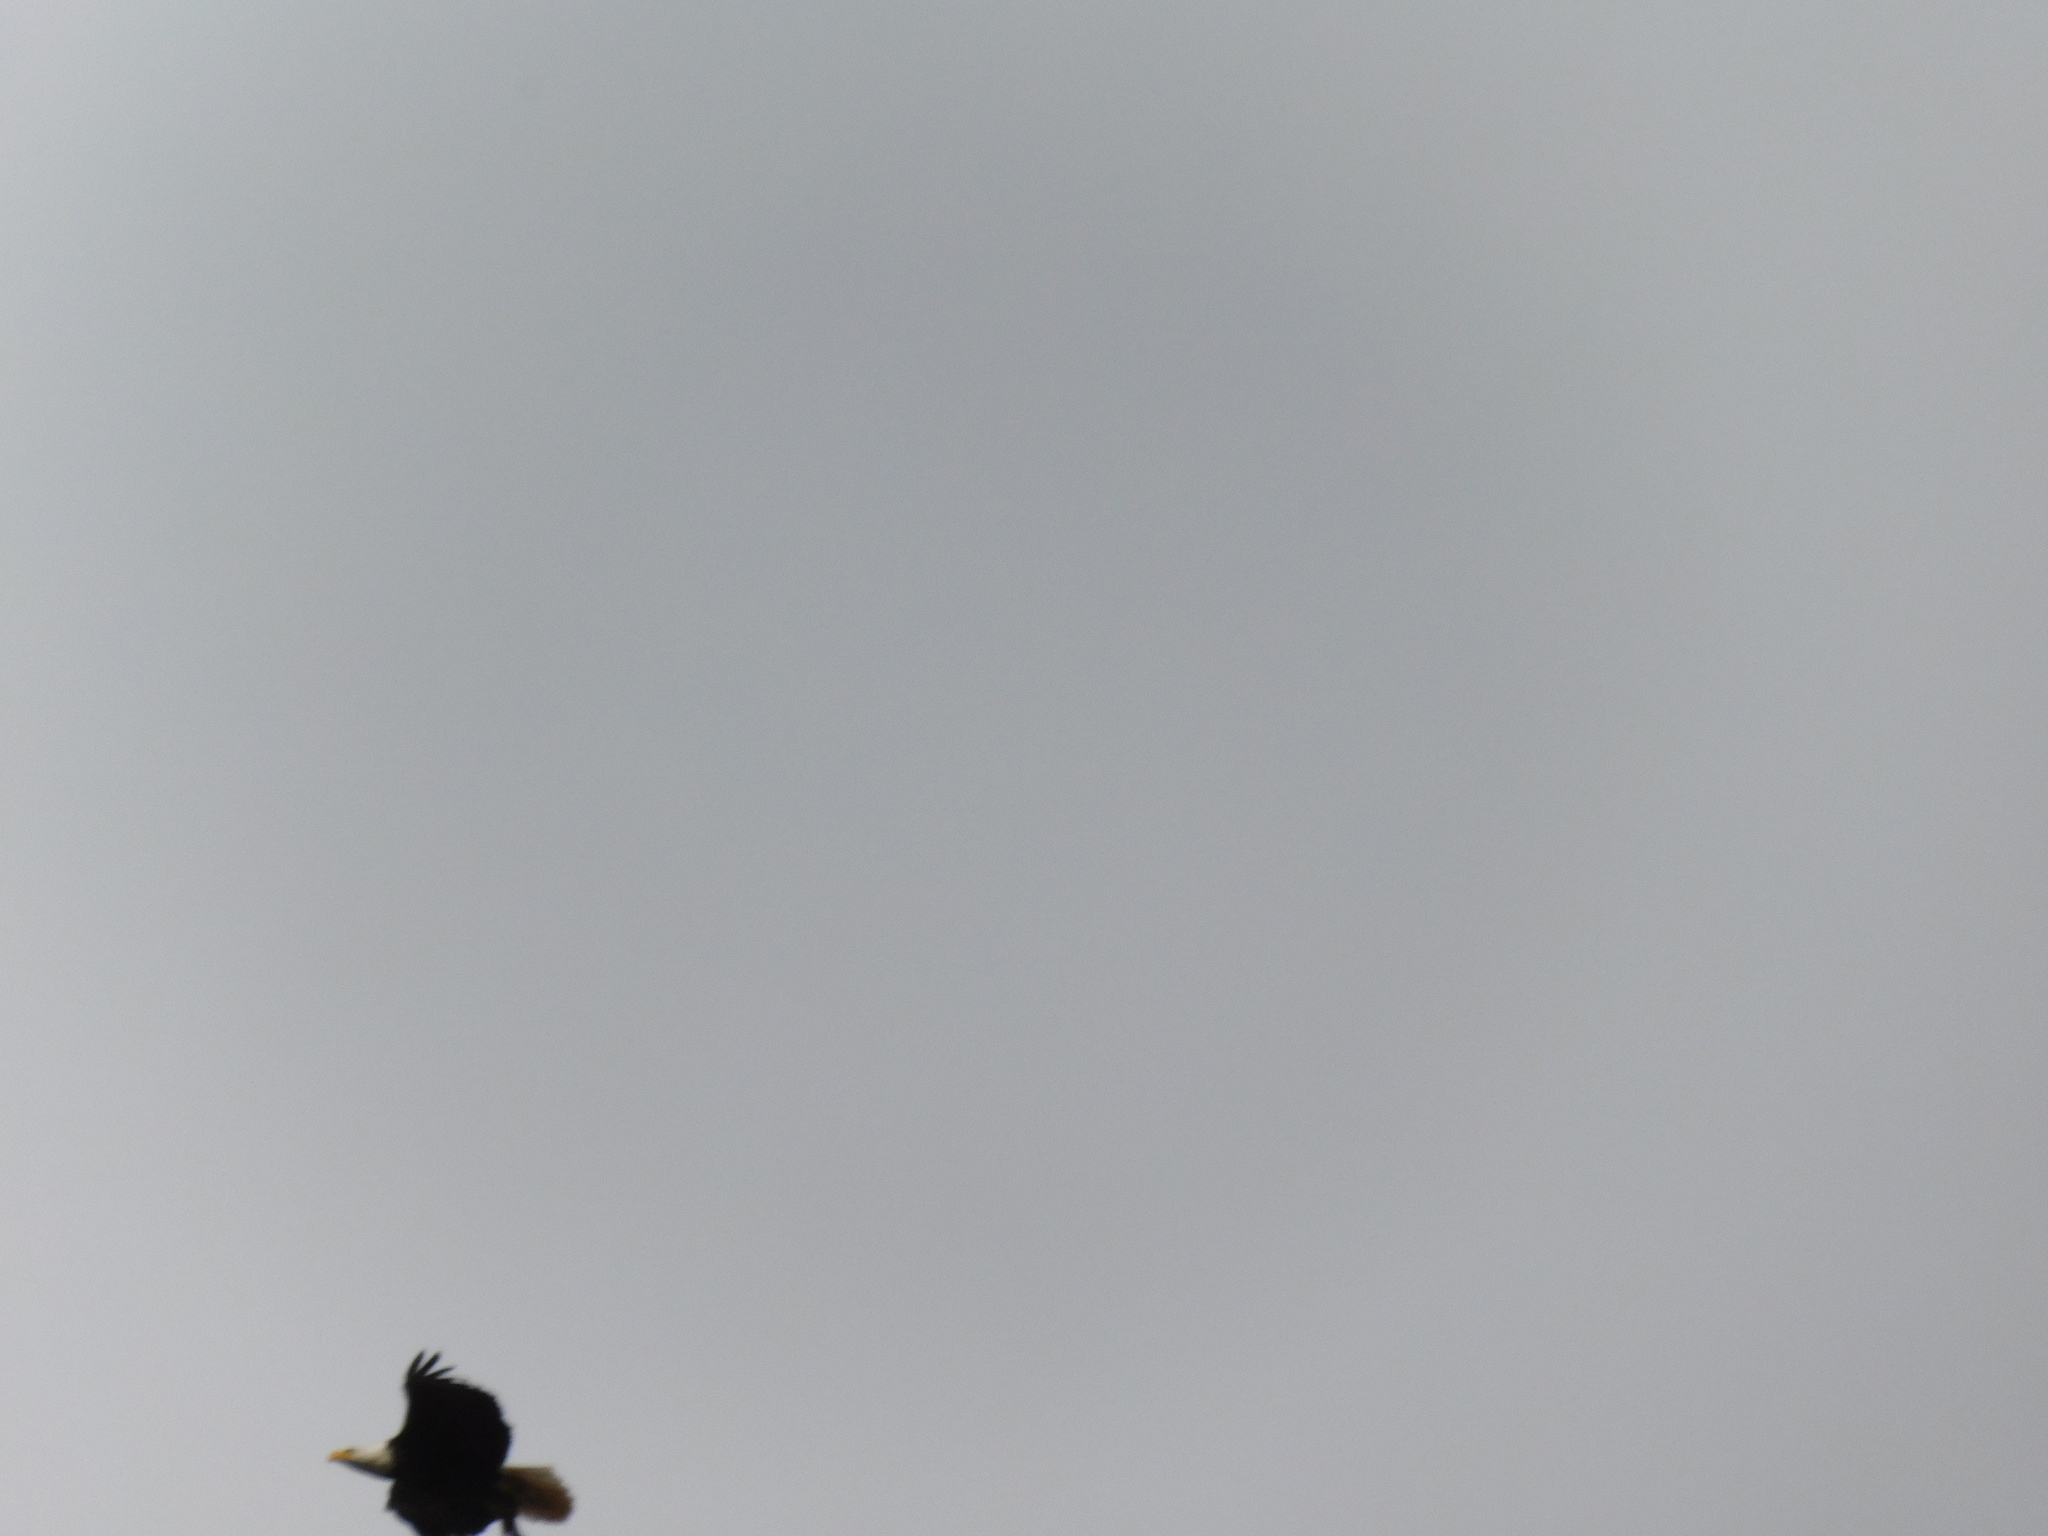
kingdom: Animalia
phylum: Chordata
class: Aves
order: Accipitriformes
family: Accipitridae
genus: Haliaeetus
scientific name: Haliaeetus leucocephalus
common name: Bald eagle
